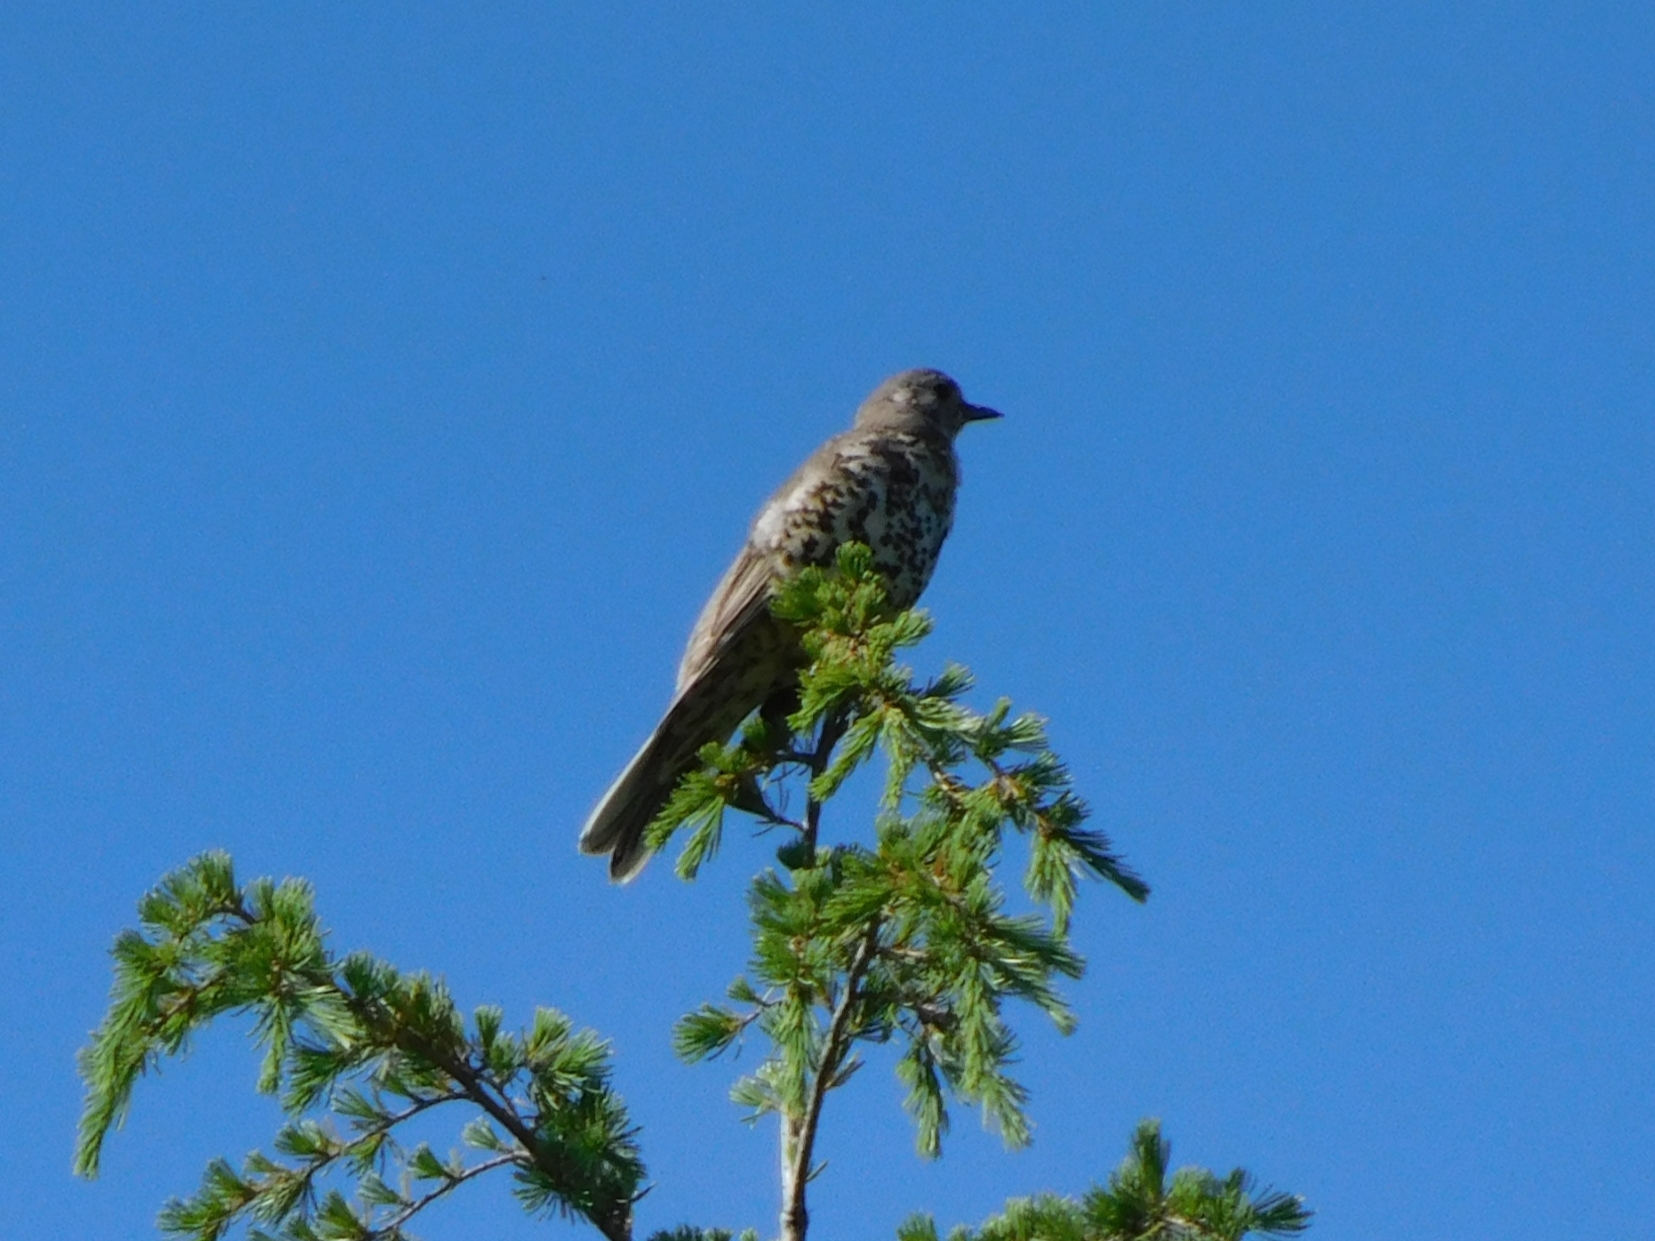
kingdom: Animalia
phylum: Chordata
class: Aves
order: Passeriformes
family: Turdidae
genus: Turdus
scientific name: Turdus viscivorus
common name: Mistle thrush
